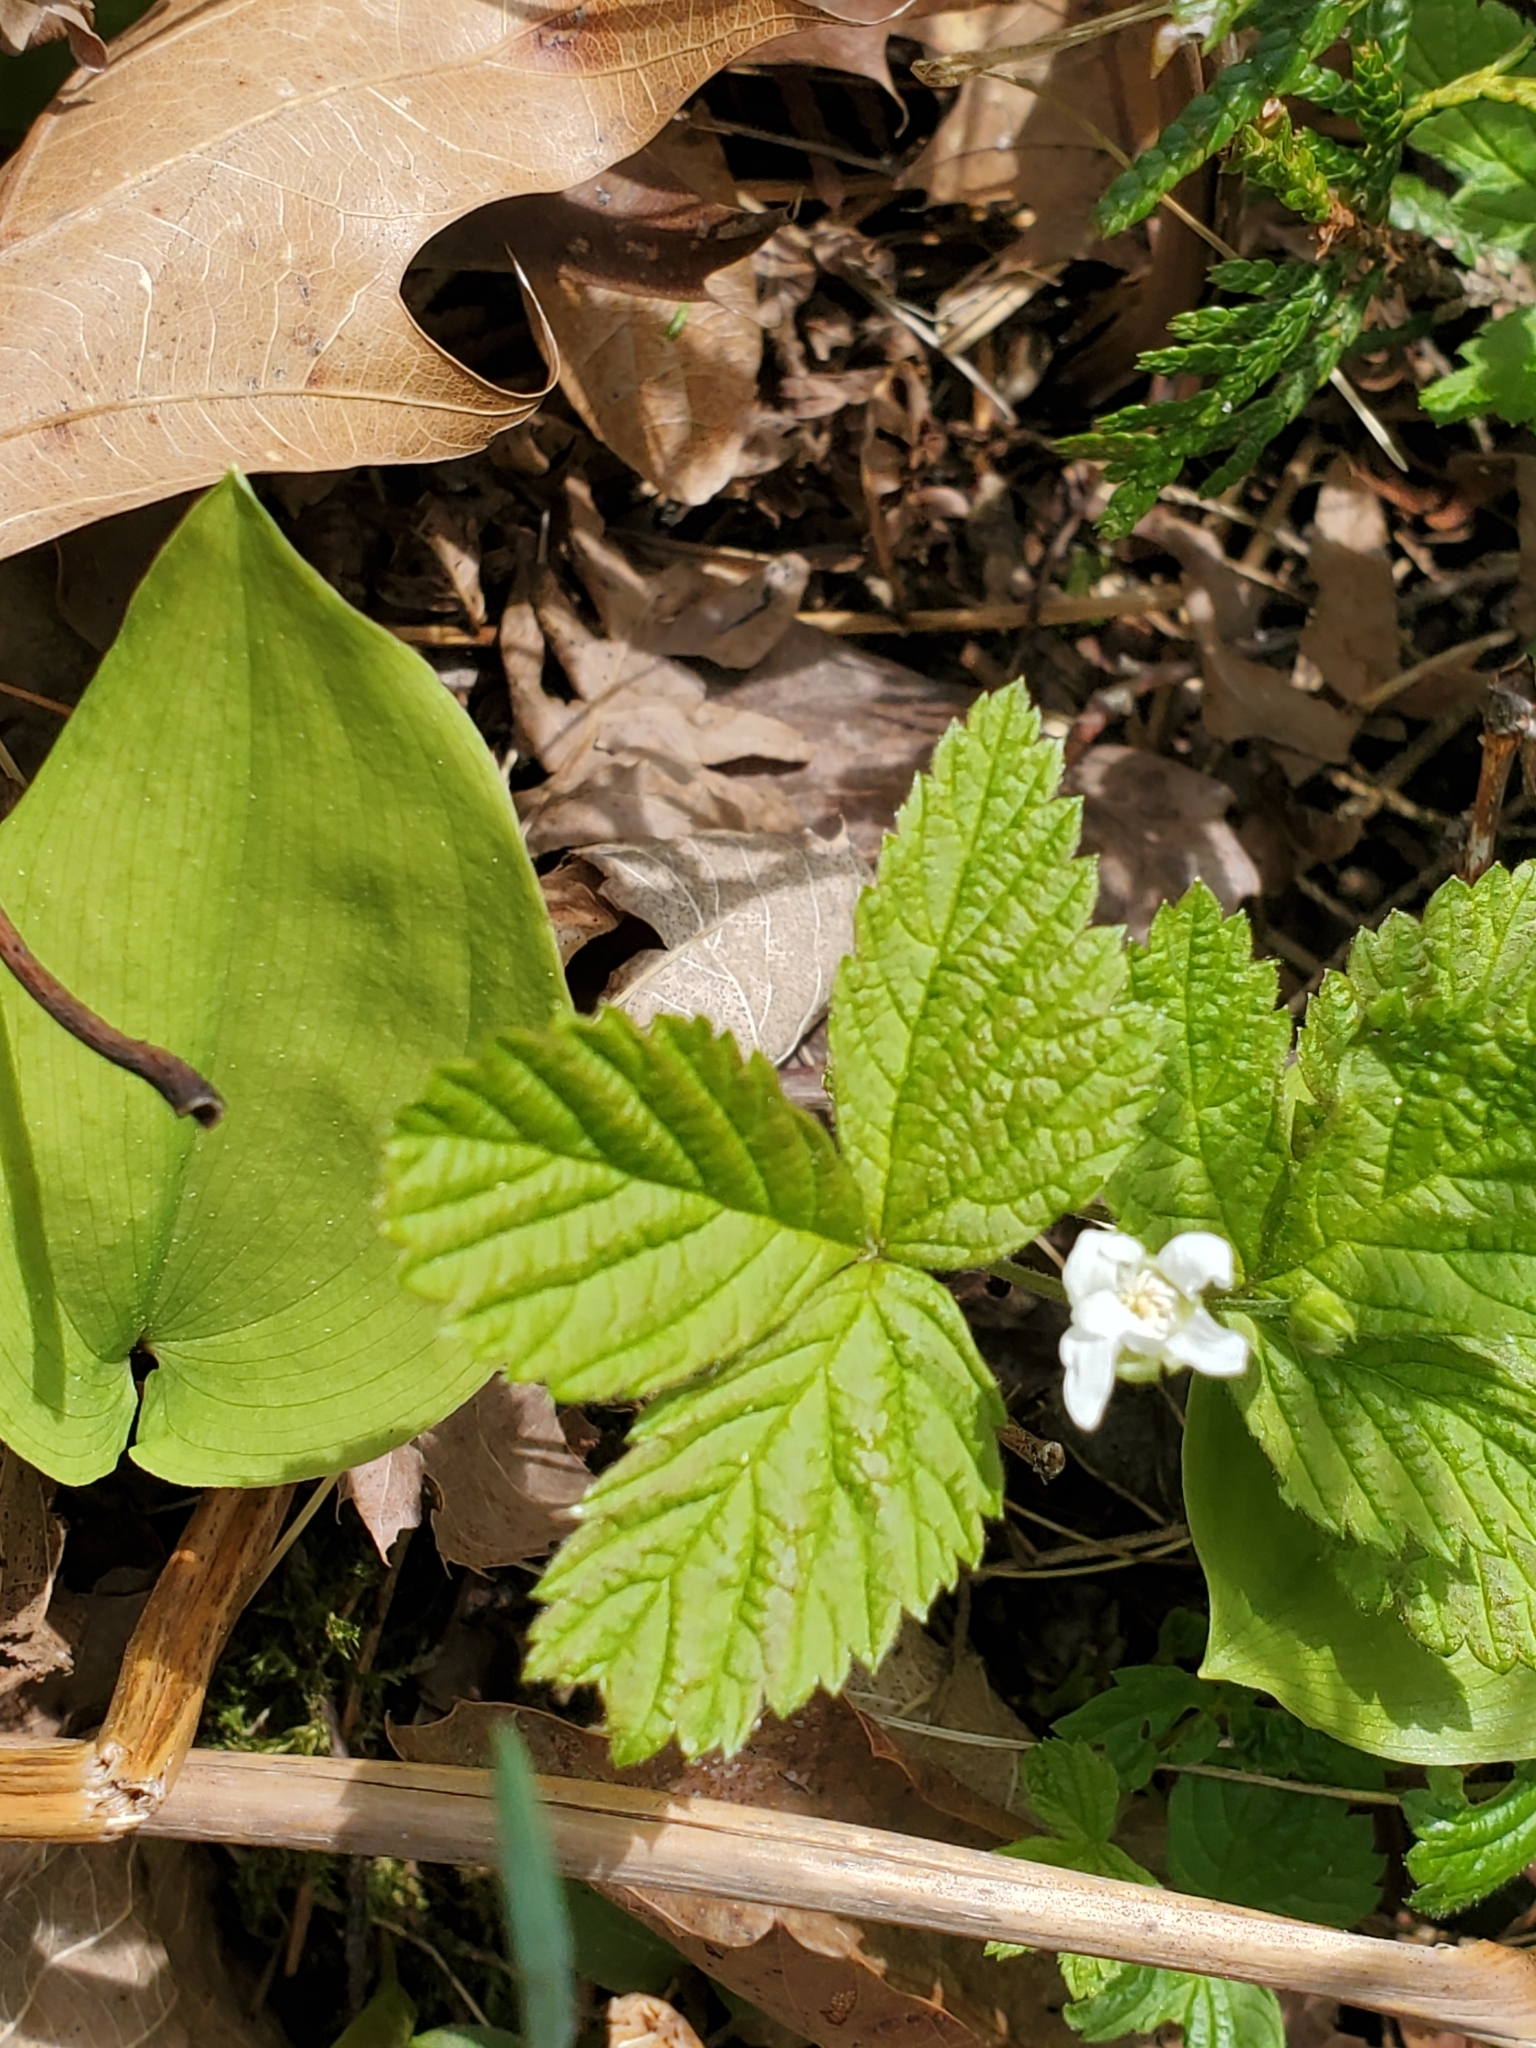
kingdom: Plantae
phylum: Tracheophyta
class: Magnoliopsida
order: Rosales
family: Rosaceae
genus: Rubus
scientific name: Rubus pubescens
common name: Dwarf raspberry
